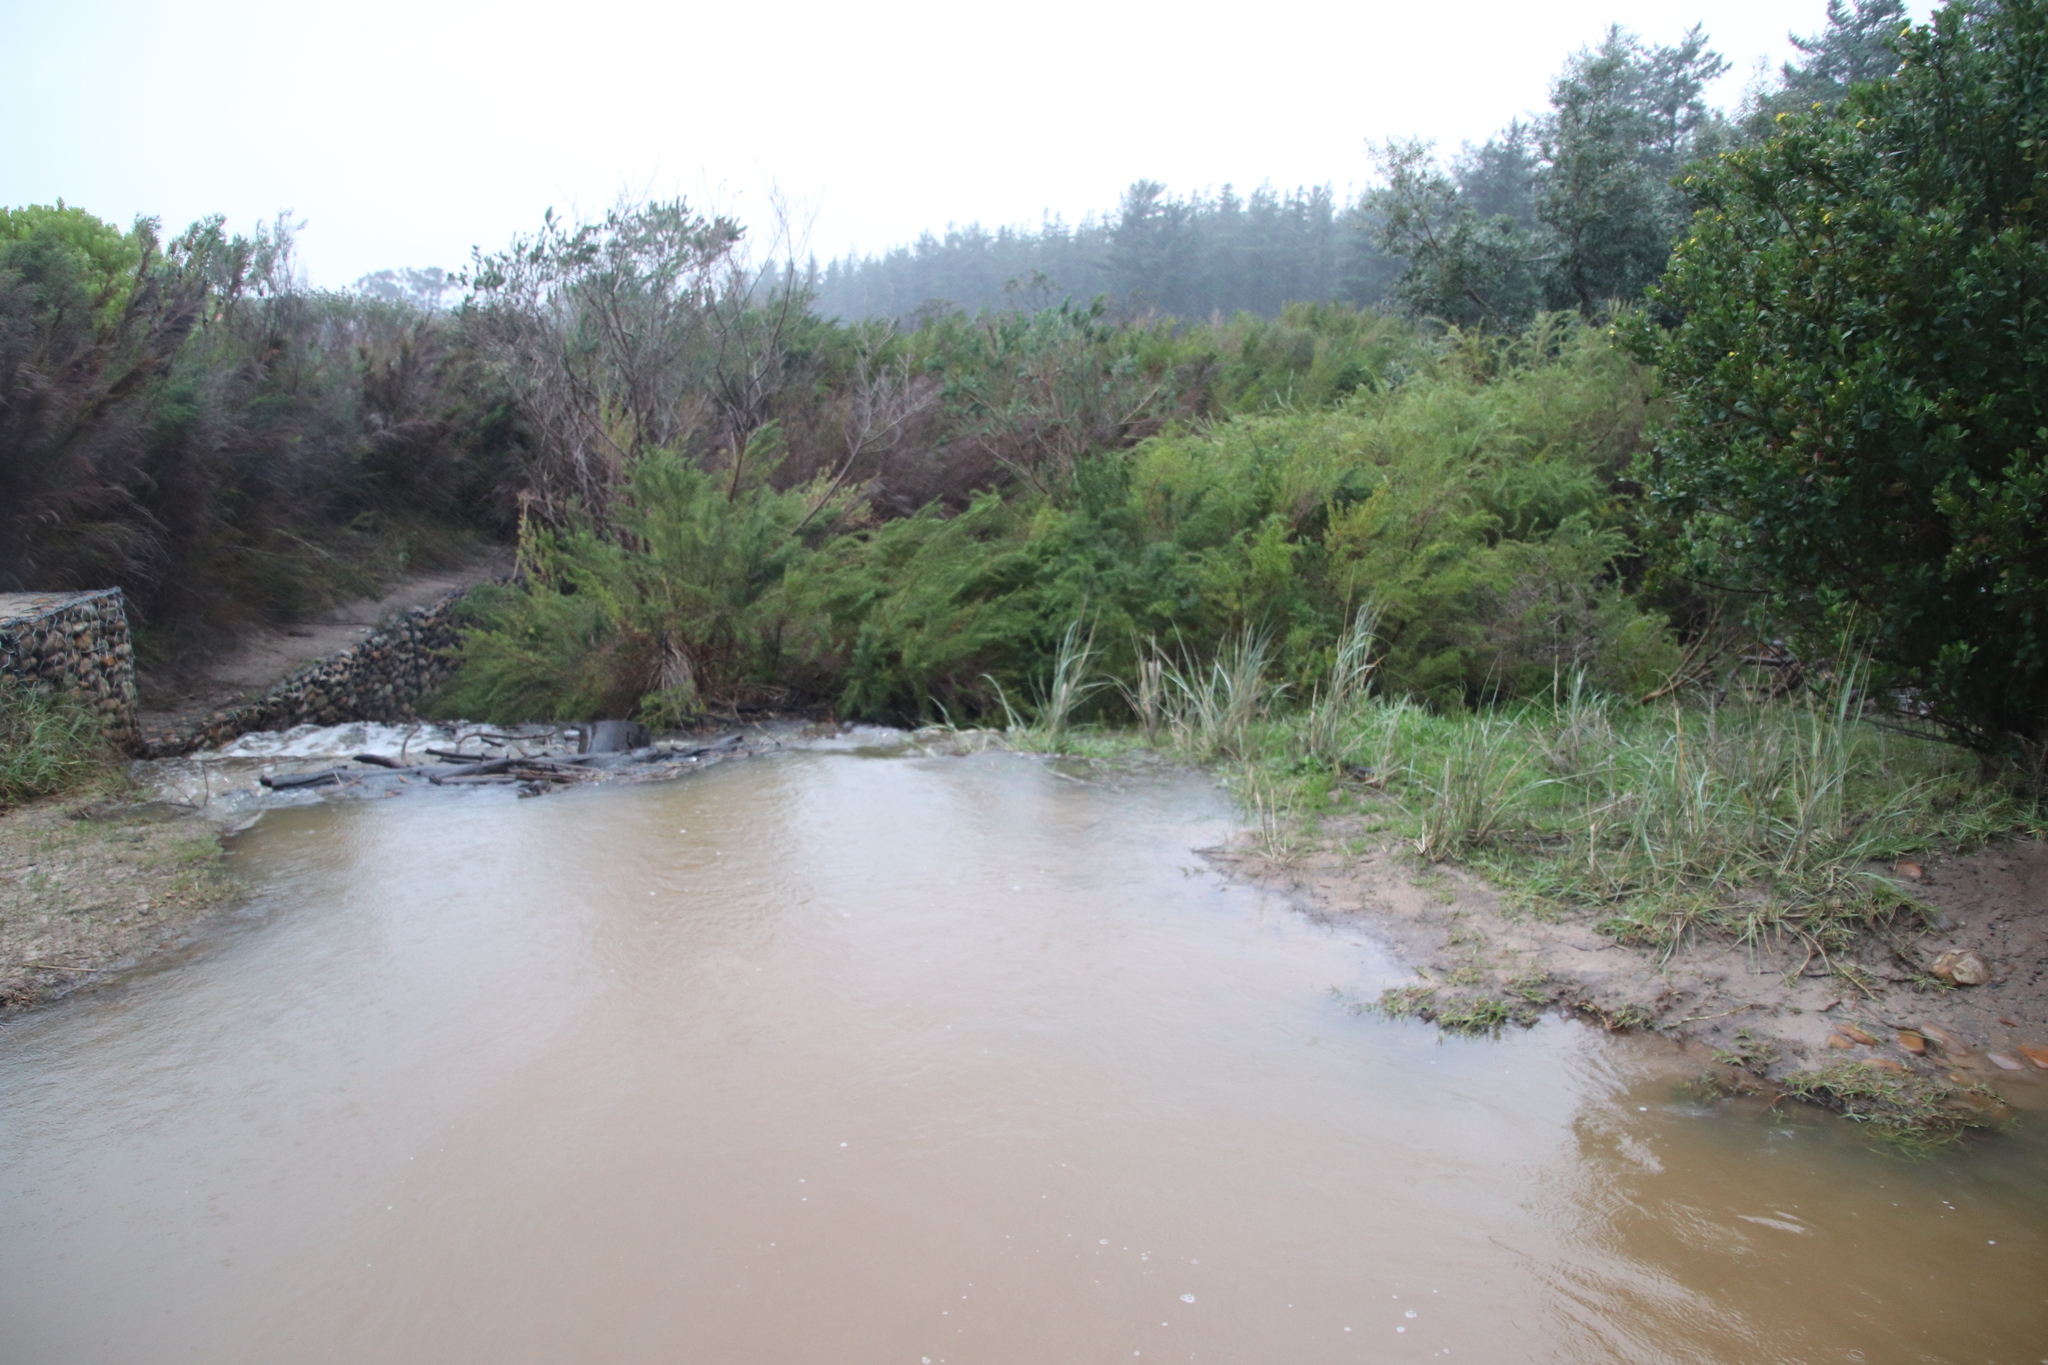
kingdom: Plantae
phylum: Tracheophyta
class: Magnoliopsida
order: Rosales
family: Rosaceae
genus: Cliffortia
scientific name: Cliffortia strobilifera
